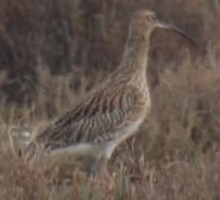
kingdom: Animalia
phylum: Chordata
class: Aves
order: Charadriiformes
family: Scolopacidae
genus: Numenius
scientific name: Numenius arquata
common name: Eurasian curlew
